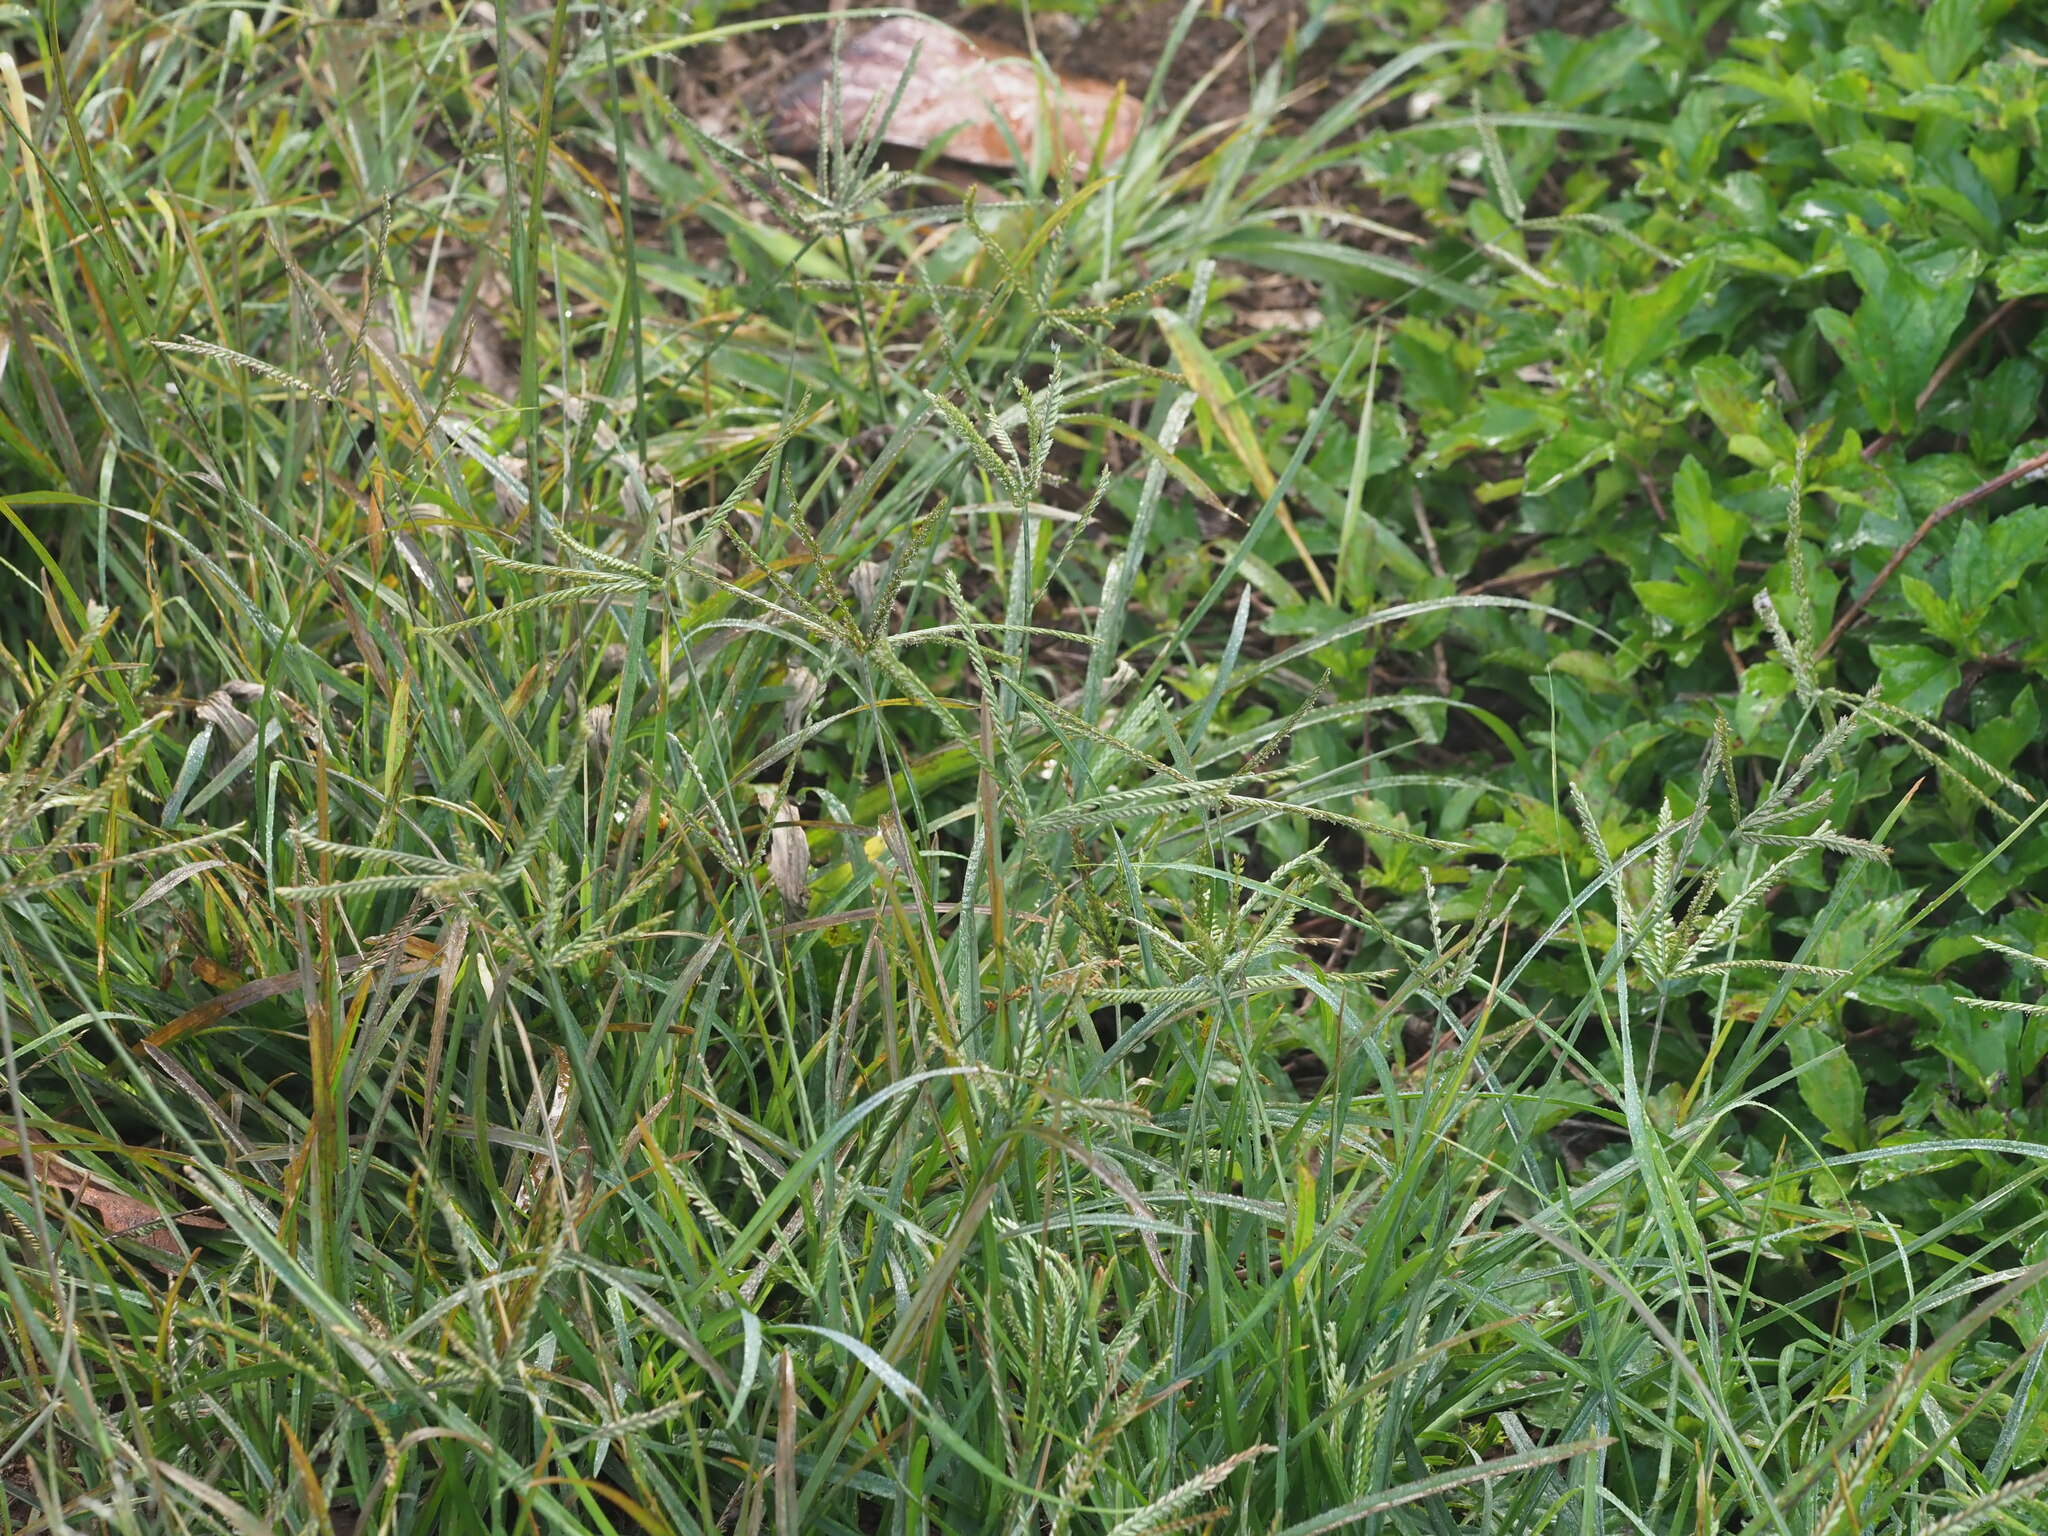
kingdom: Plantae
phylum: Tracheophyta
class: Liliopsida
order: Poales
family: Poaceae
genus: Eleusine
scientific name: Eleusine indica
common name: Yard-grass
